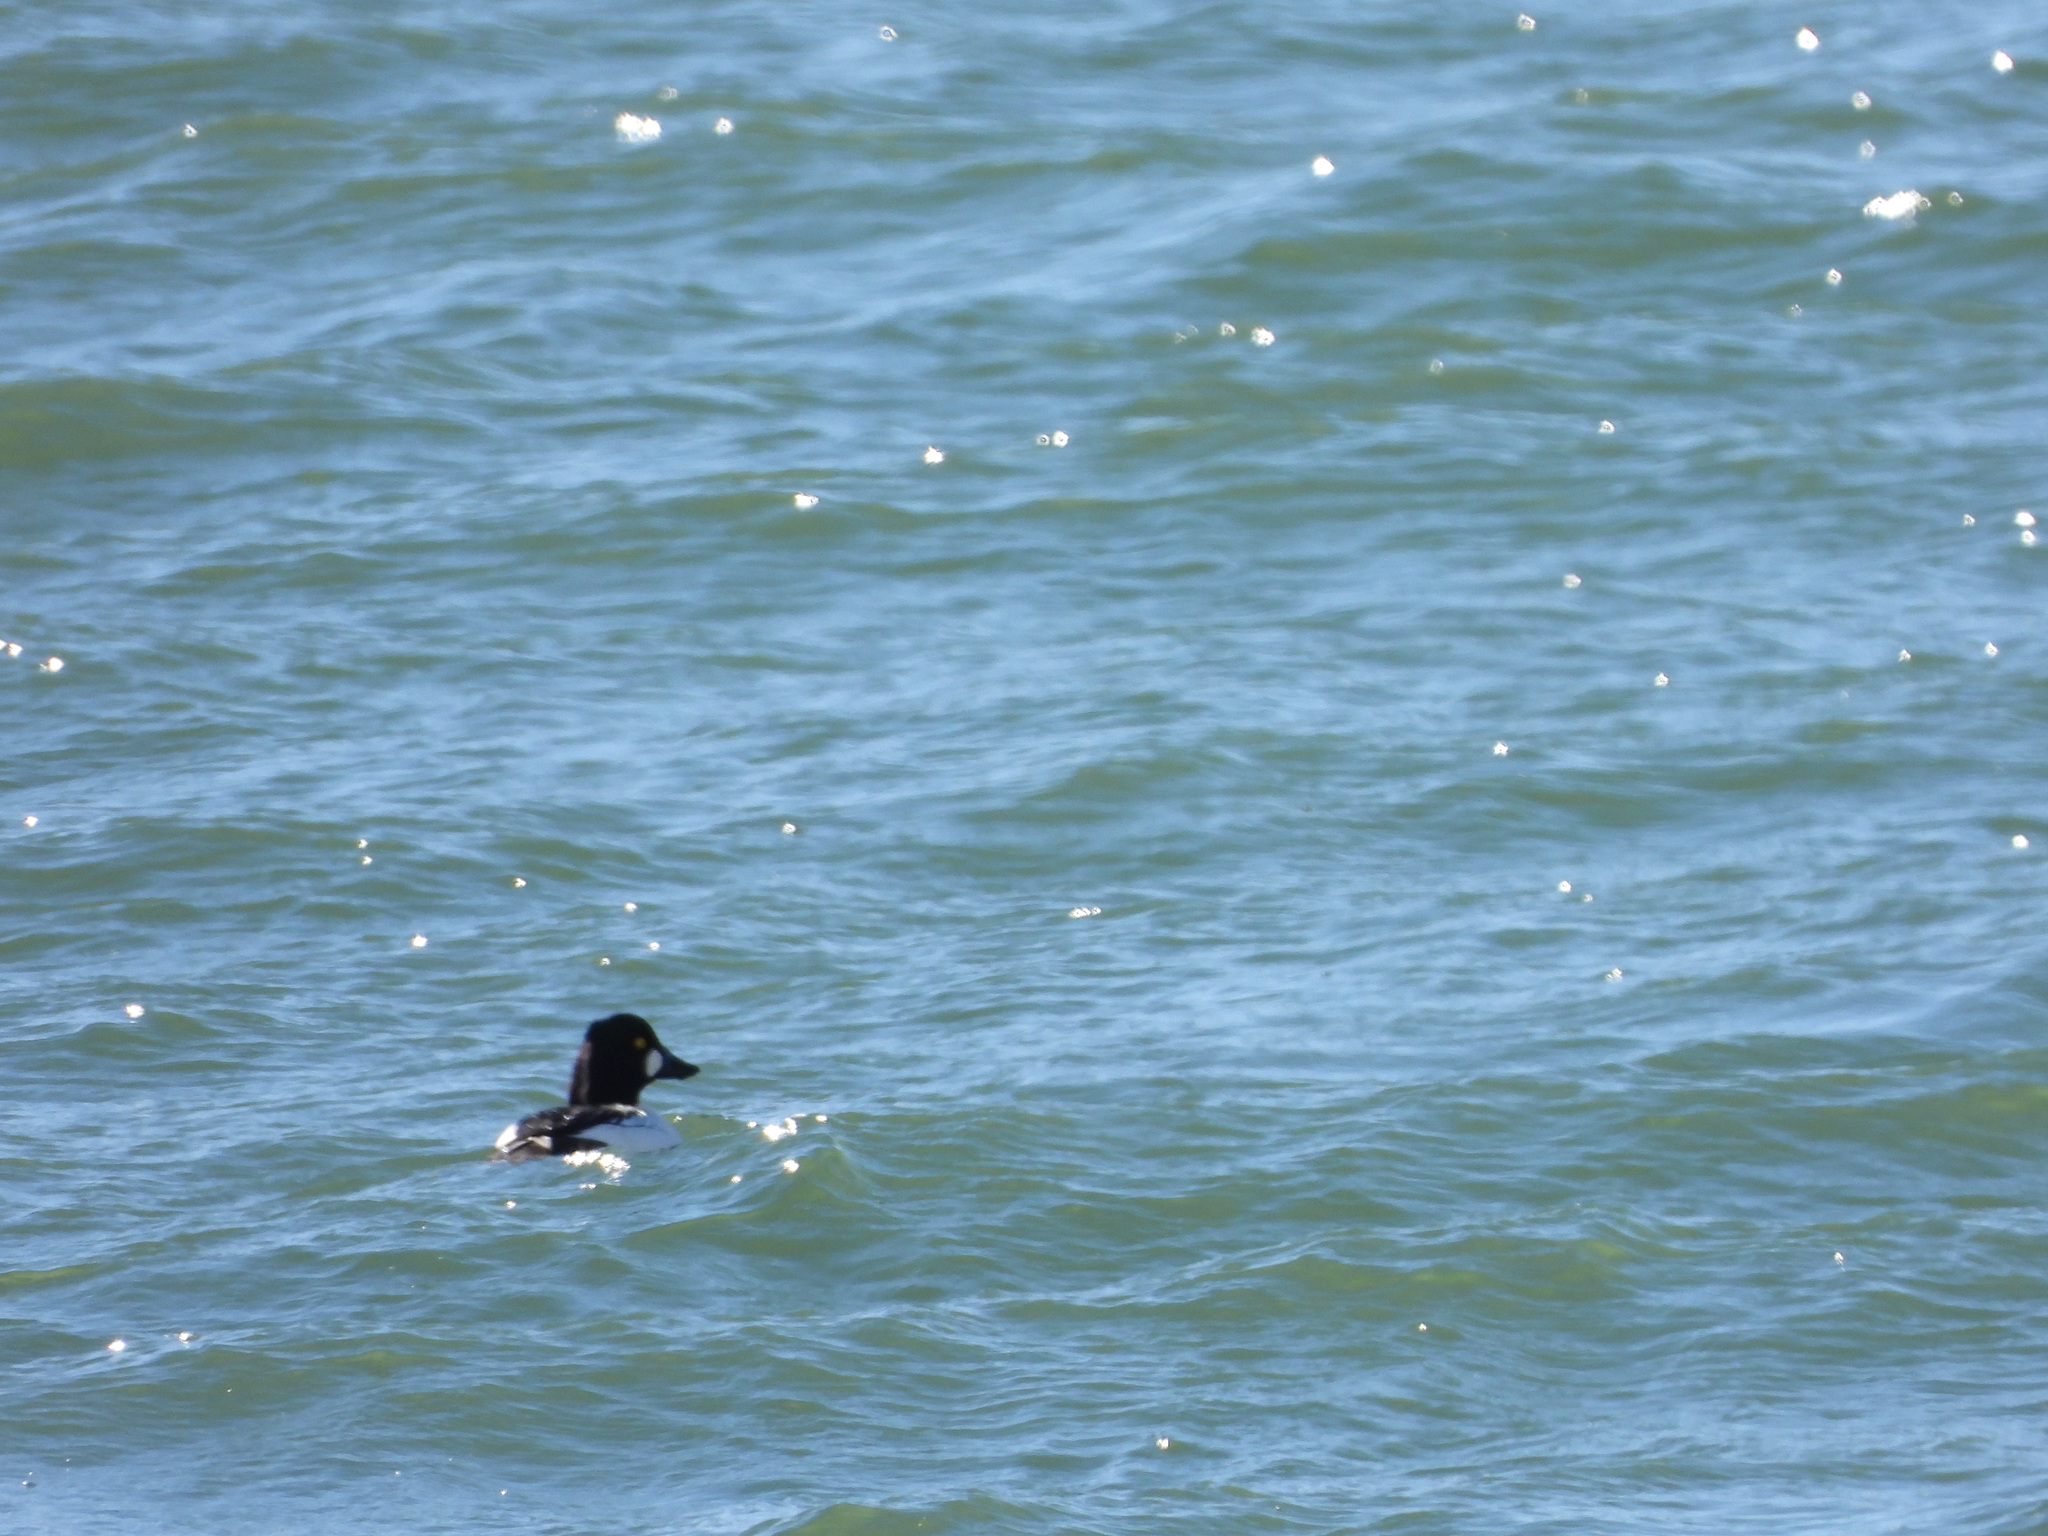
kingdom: Animalia
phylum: Chordata
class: Aves
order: Anseriformes
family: Anatidae
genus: Bucephala
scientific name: Bucephala clangula
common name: Common goldeneye
